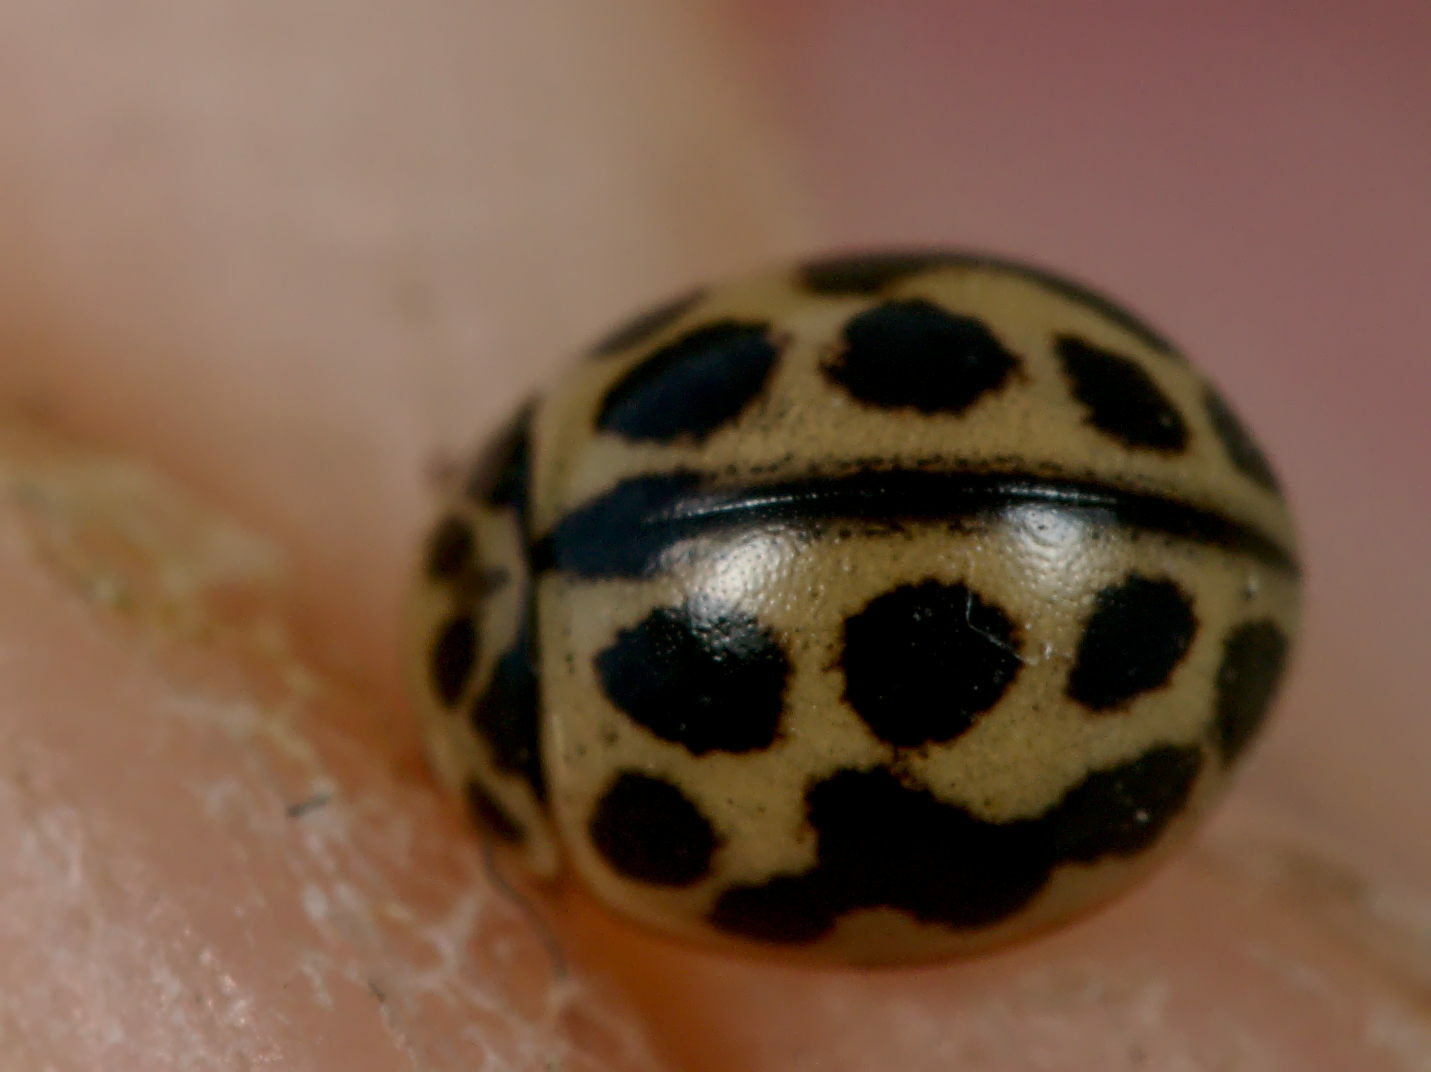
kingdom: Animalia
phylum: Arthropoda
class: Insecta
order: Coleoptera
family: Coccinellidae
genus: Tytthaspis
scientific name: Tytthaspis sedecimpunctata
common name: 16-spot ladybird
